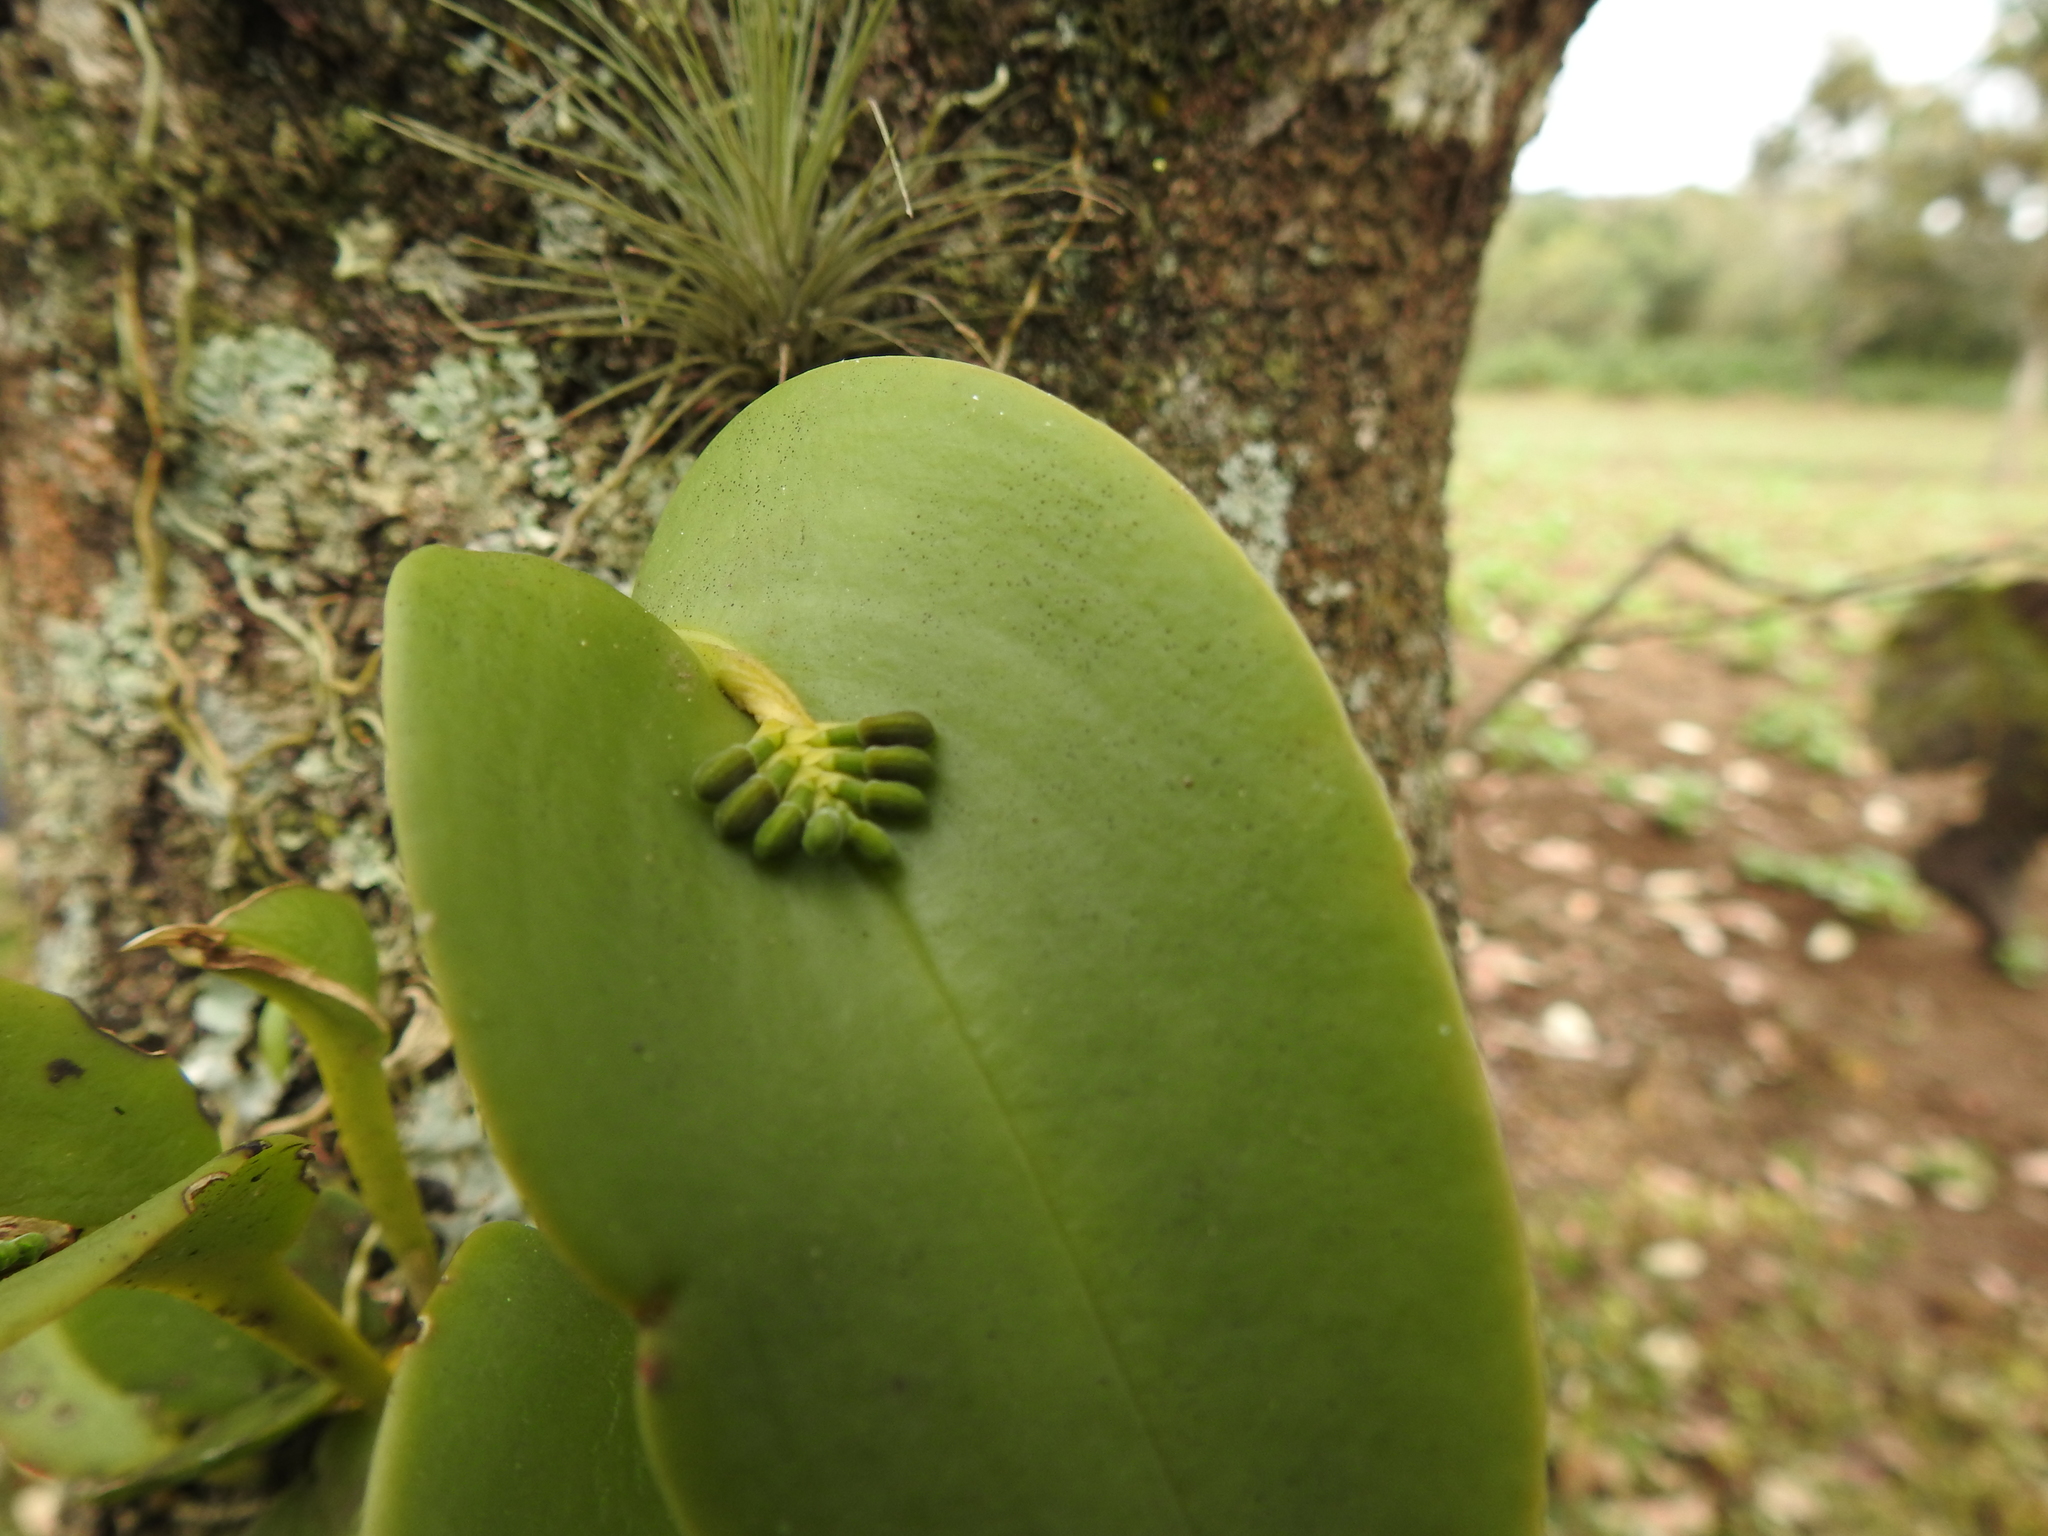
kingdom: Plantae
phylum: Tracheophyta
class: Liliopsida
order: Asparagales
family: Orchidaceae
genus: Acianthera
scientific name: Acianthera circumplexa
